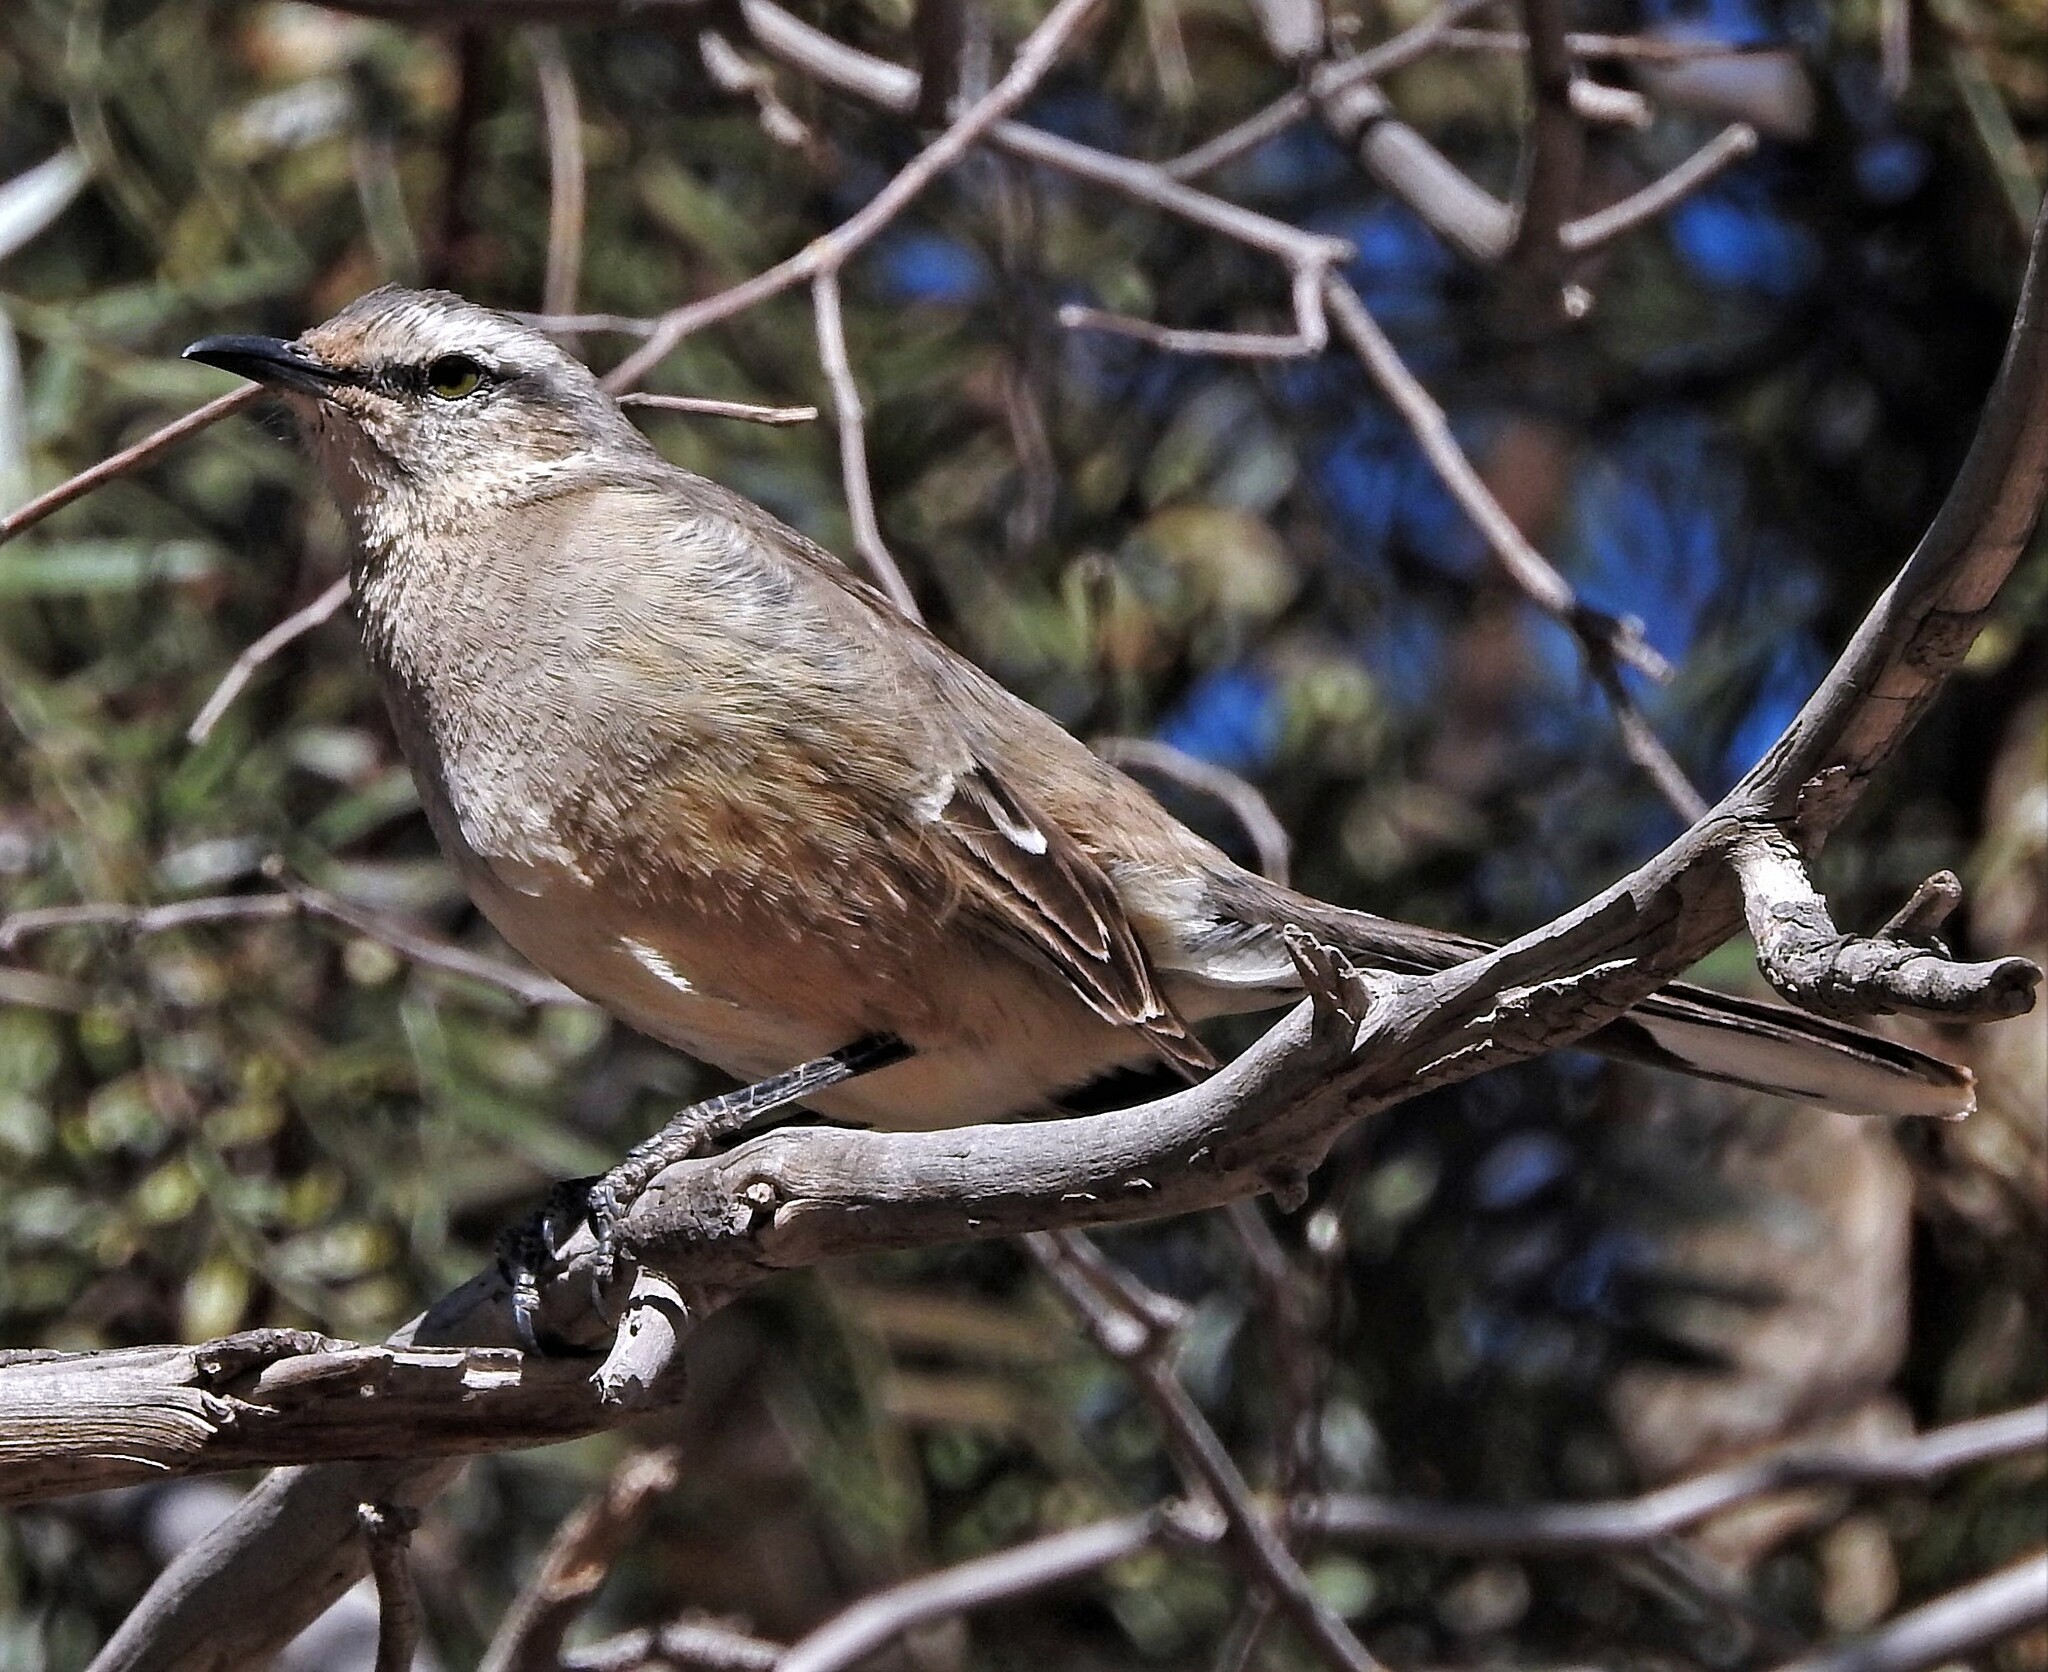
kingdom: Animalia
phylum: Chordata
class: Aves
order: Passeriformes
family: Mimidae
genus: Mimus
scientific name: Mimus patagonicus
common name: Patagonian mockingbird
